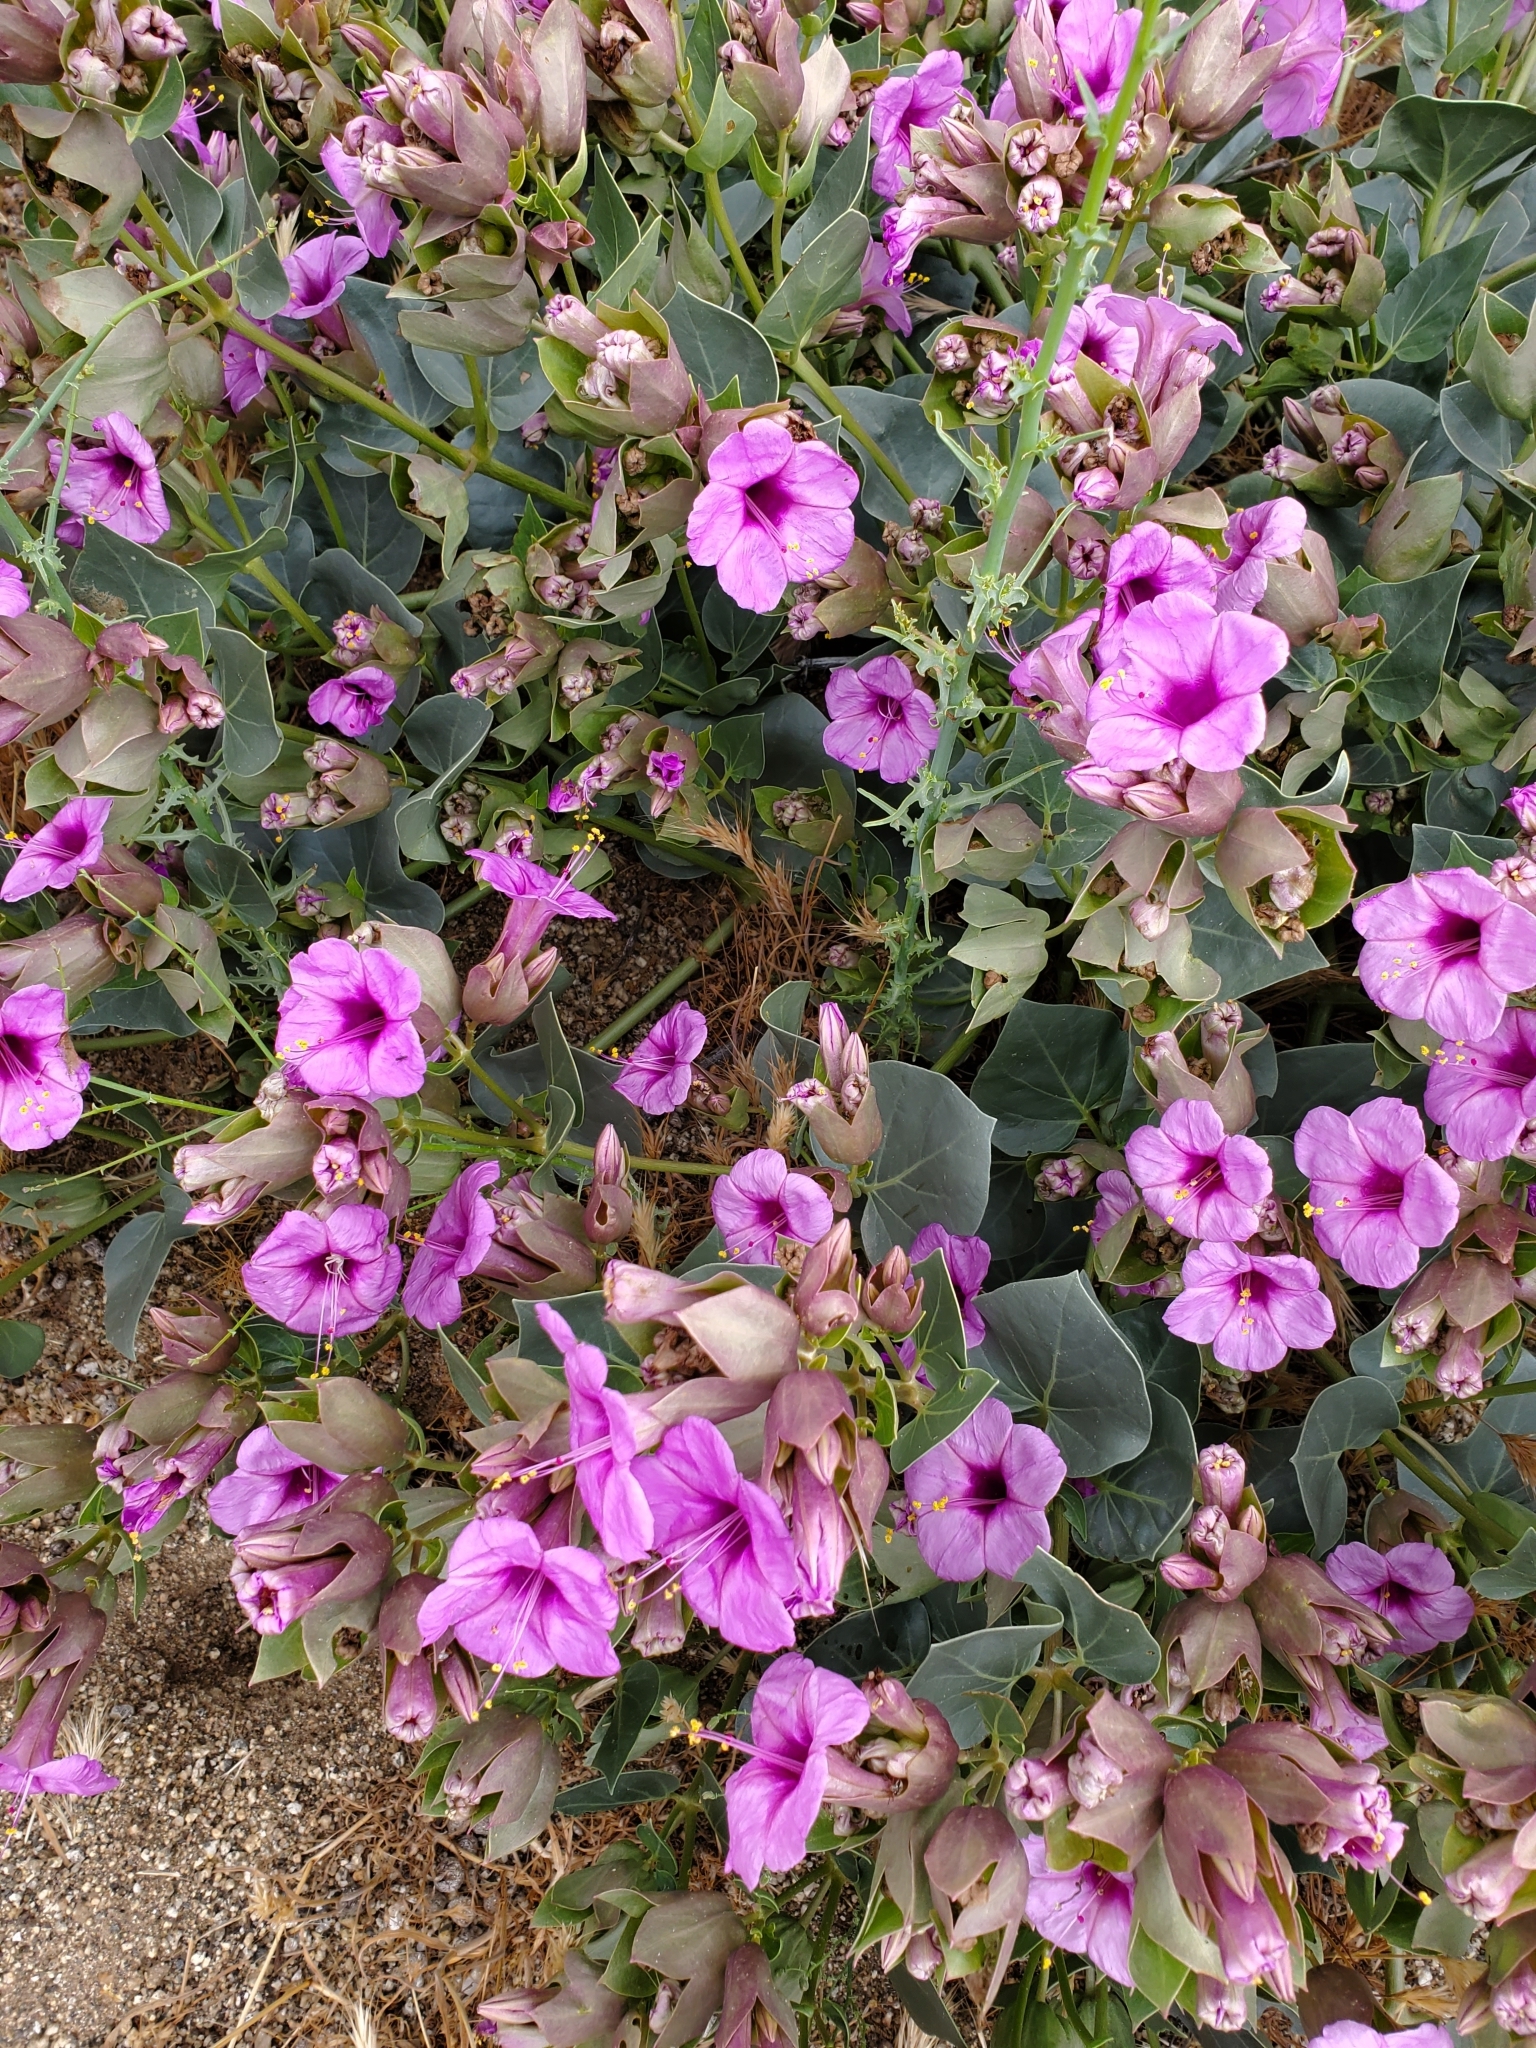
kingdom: Plantae
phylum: Tracheophyta
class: Magnoliopsida
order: Caryophyllales
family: Nyctaginaceae
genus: Mirabilis
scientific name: Mirabilis multiflora
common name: Froebel's four-o'clock
